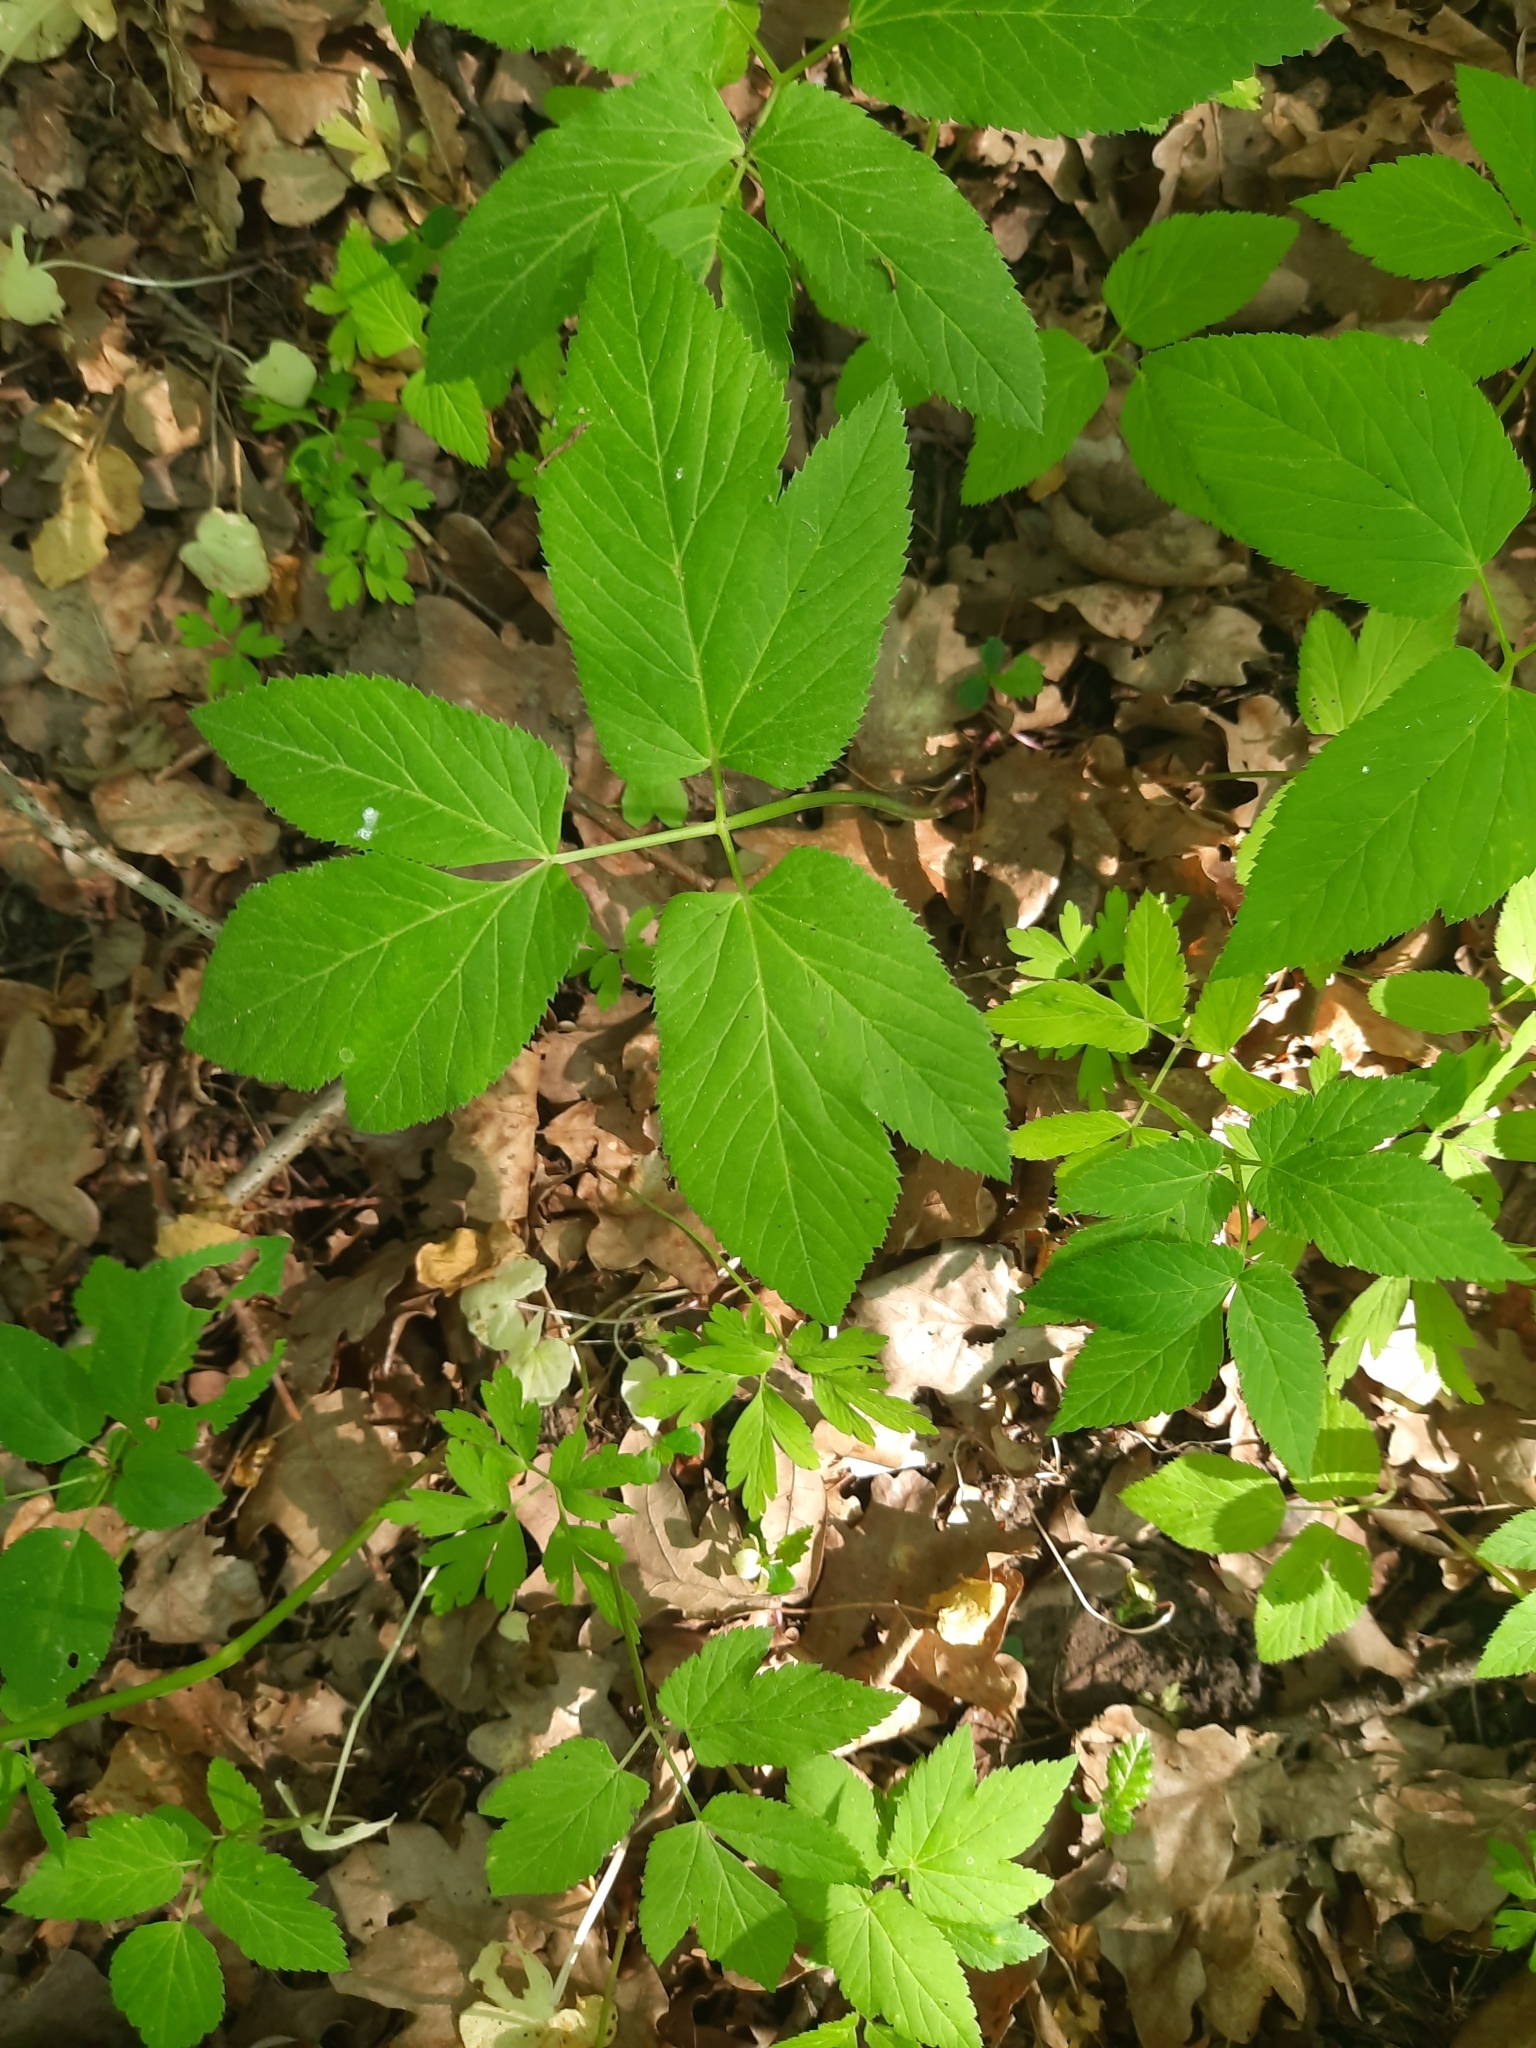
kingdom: Plantae
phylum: Tracheophyta
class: Magnoliopsida
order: Apiales
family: Apiaceae
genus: Aegopodium
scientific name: Aegopodium podagraria
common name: Ground-elder
